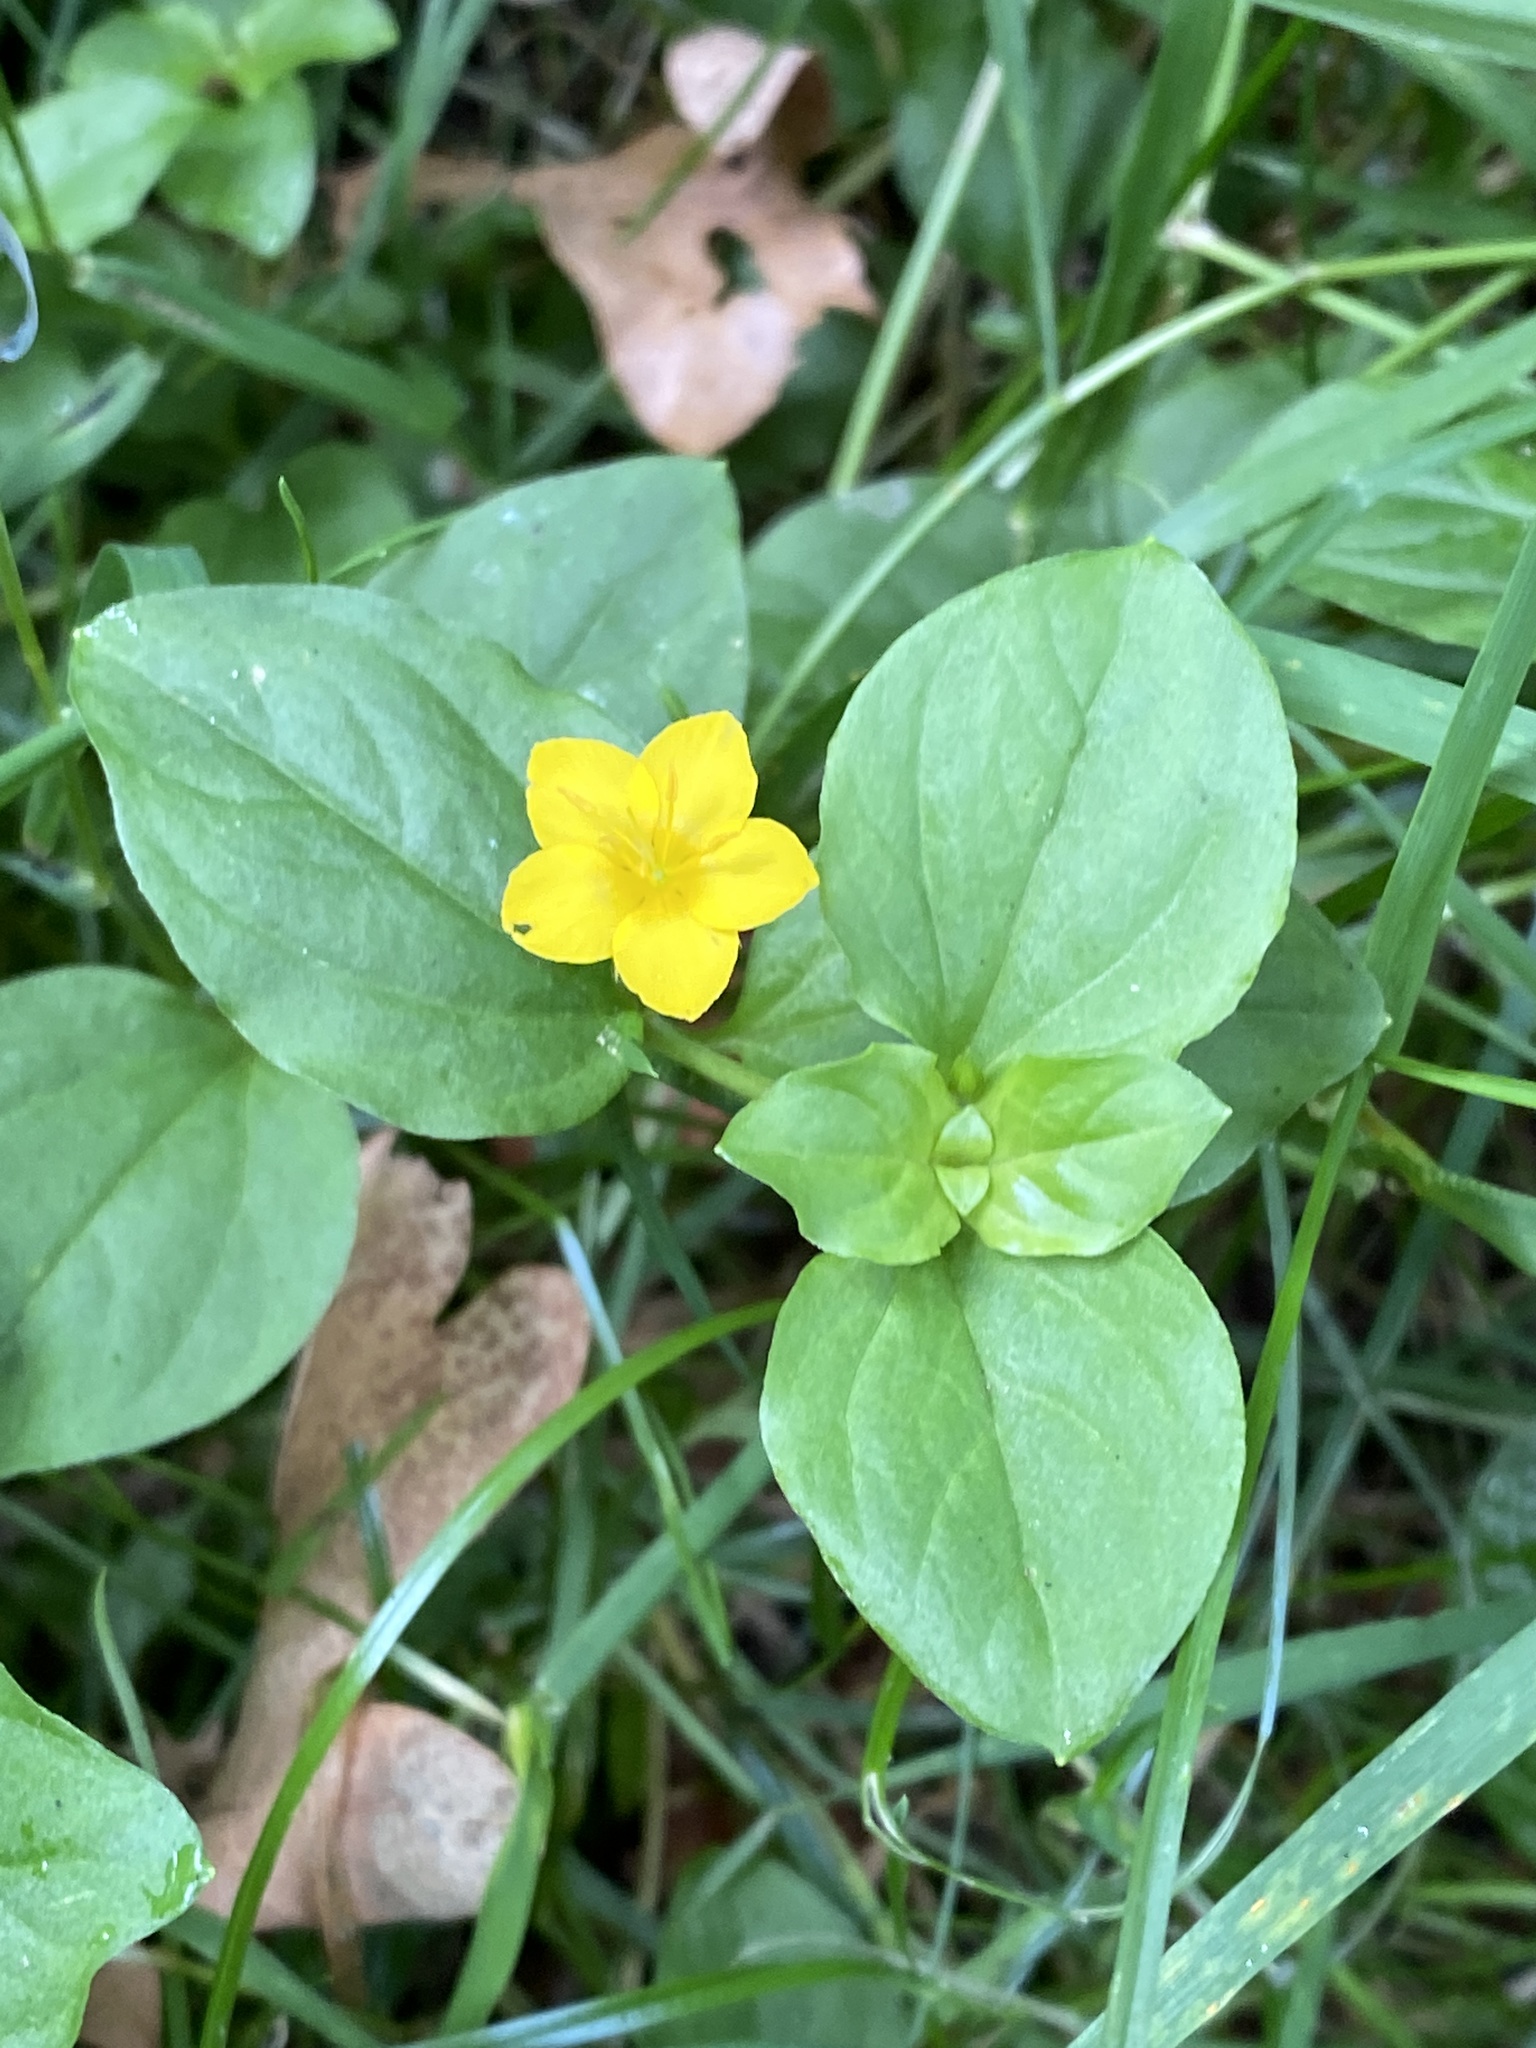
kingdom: Plantae
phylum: Tracheophyta
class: Magnoliopsida
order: Ericales
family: Primulaceae
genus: Lysimachia
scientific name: Lysimachia nemorum
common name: Yellow pimpernel
